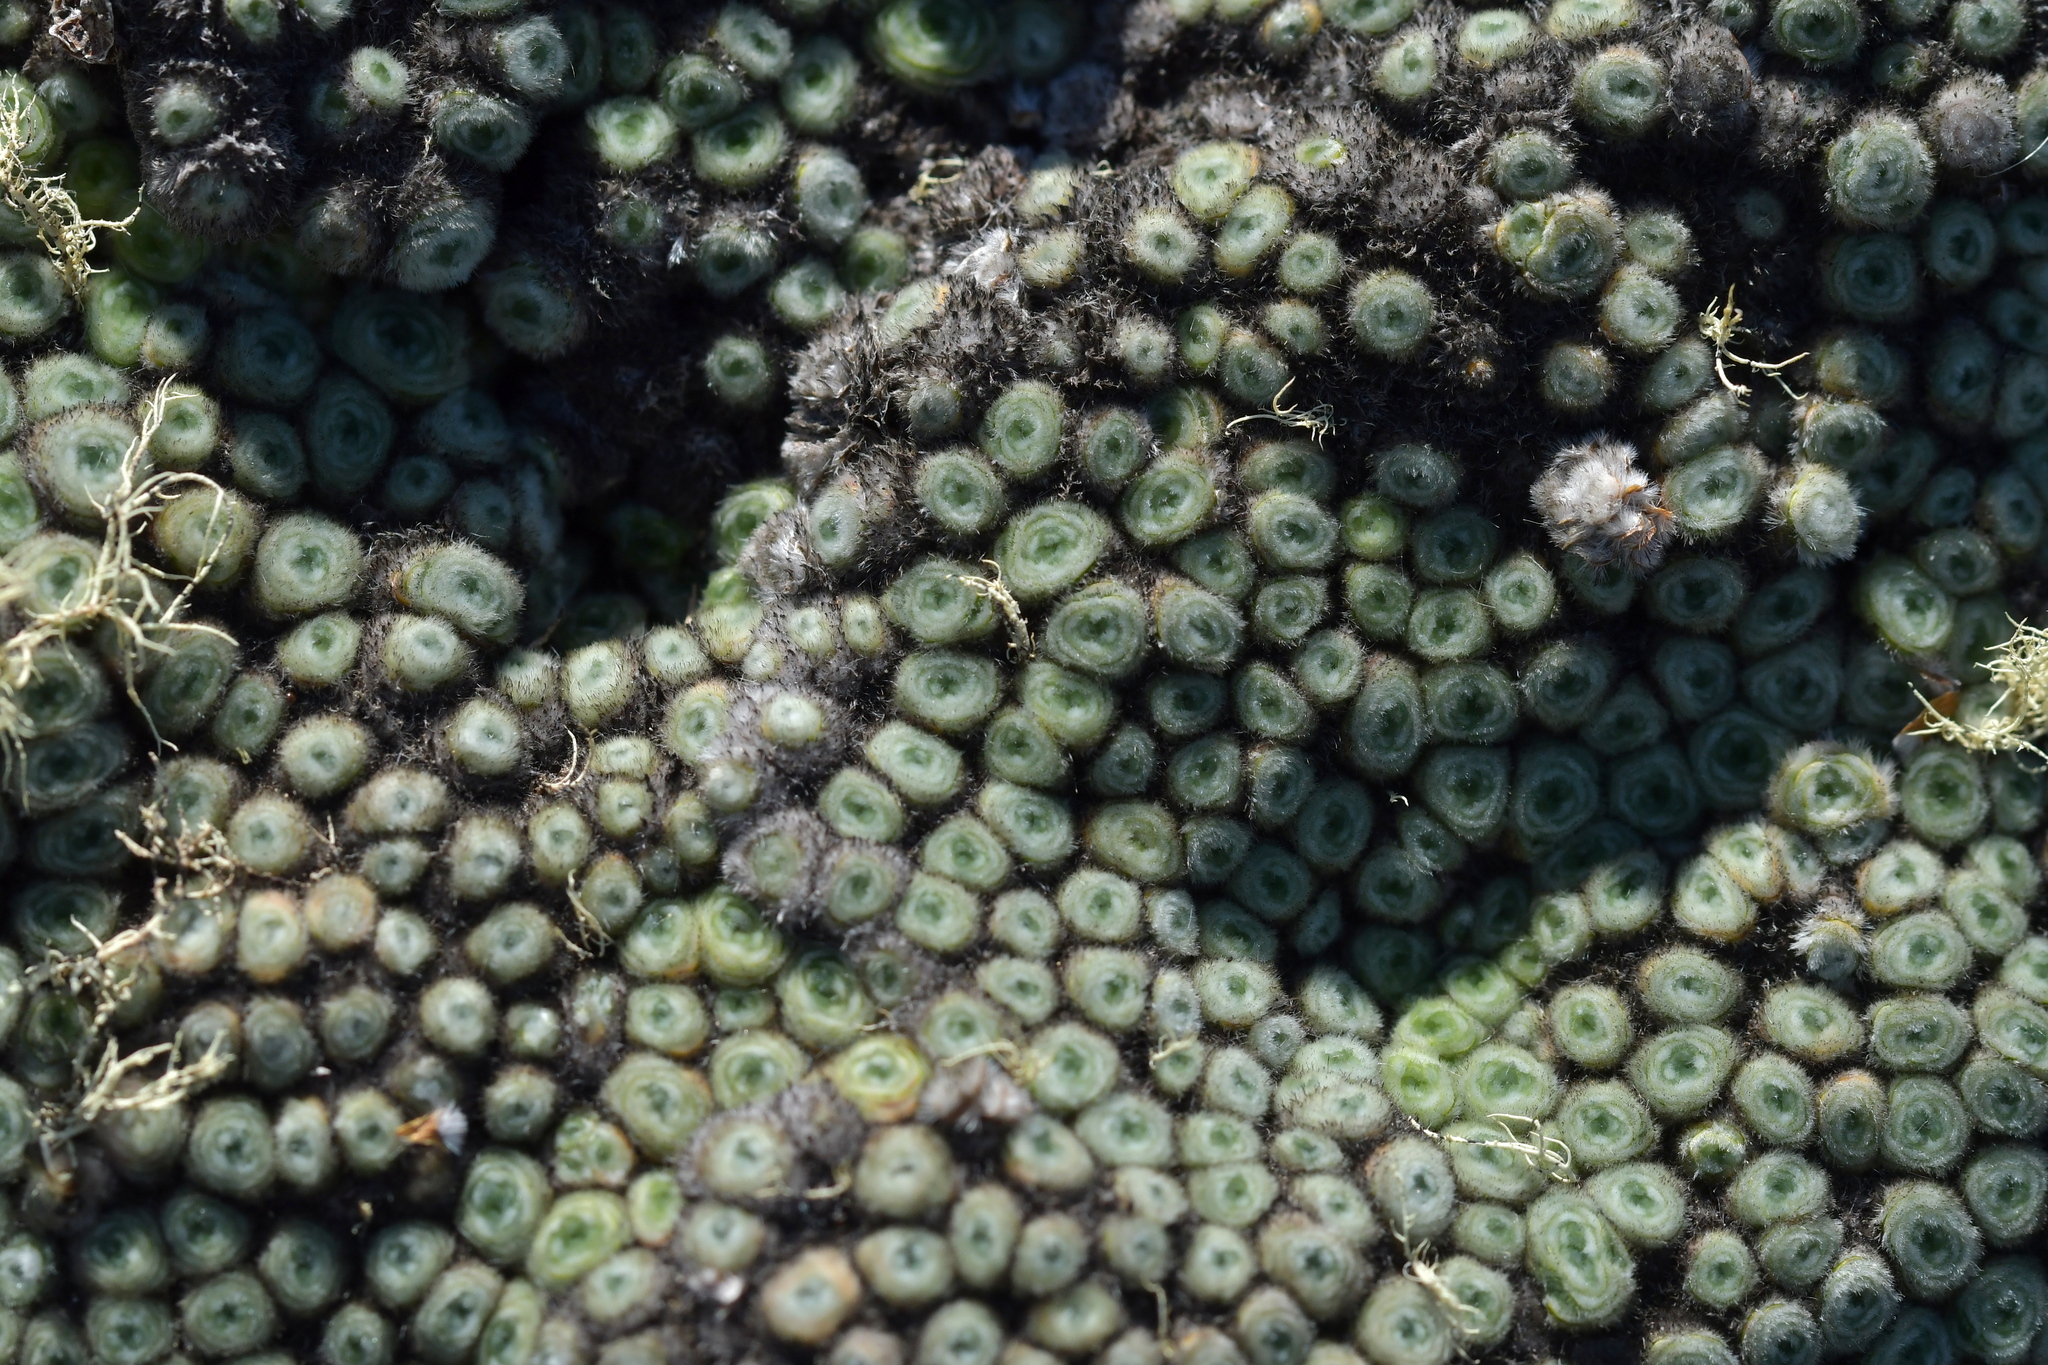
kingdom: Plantae
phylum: Tracheophyta
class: Magnoliopsida
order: Asterales
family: Asteraceae
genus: Raoulia
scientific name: Raoulia rubra
